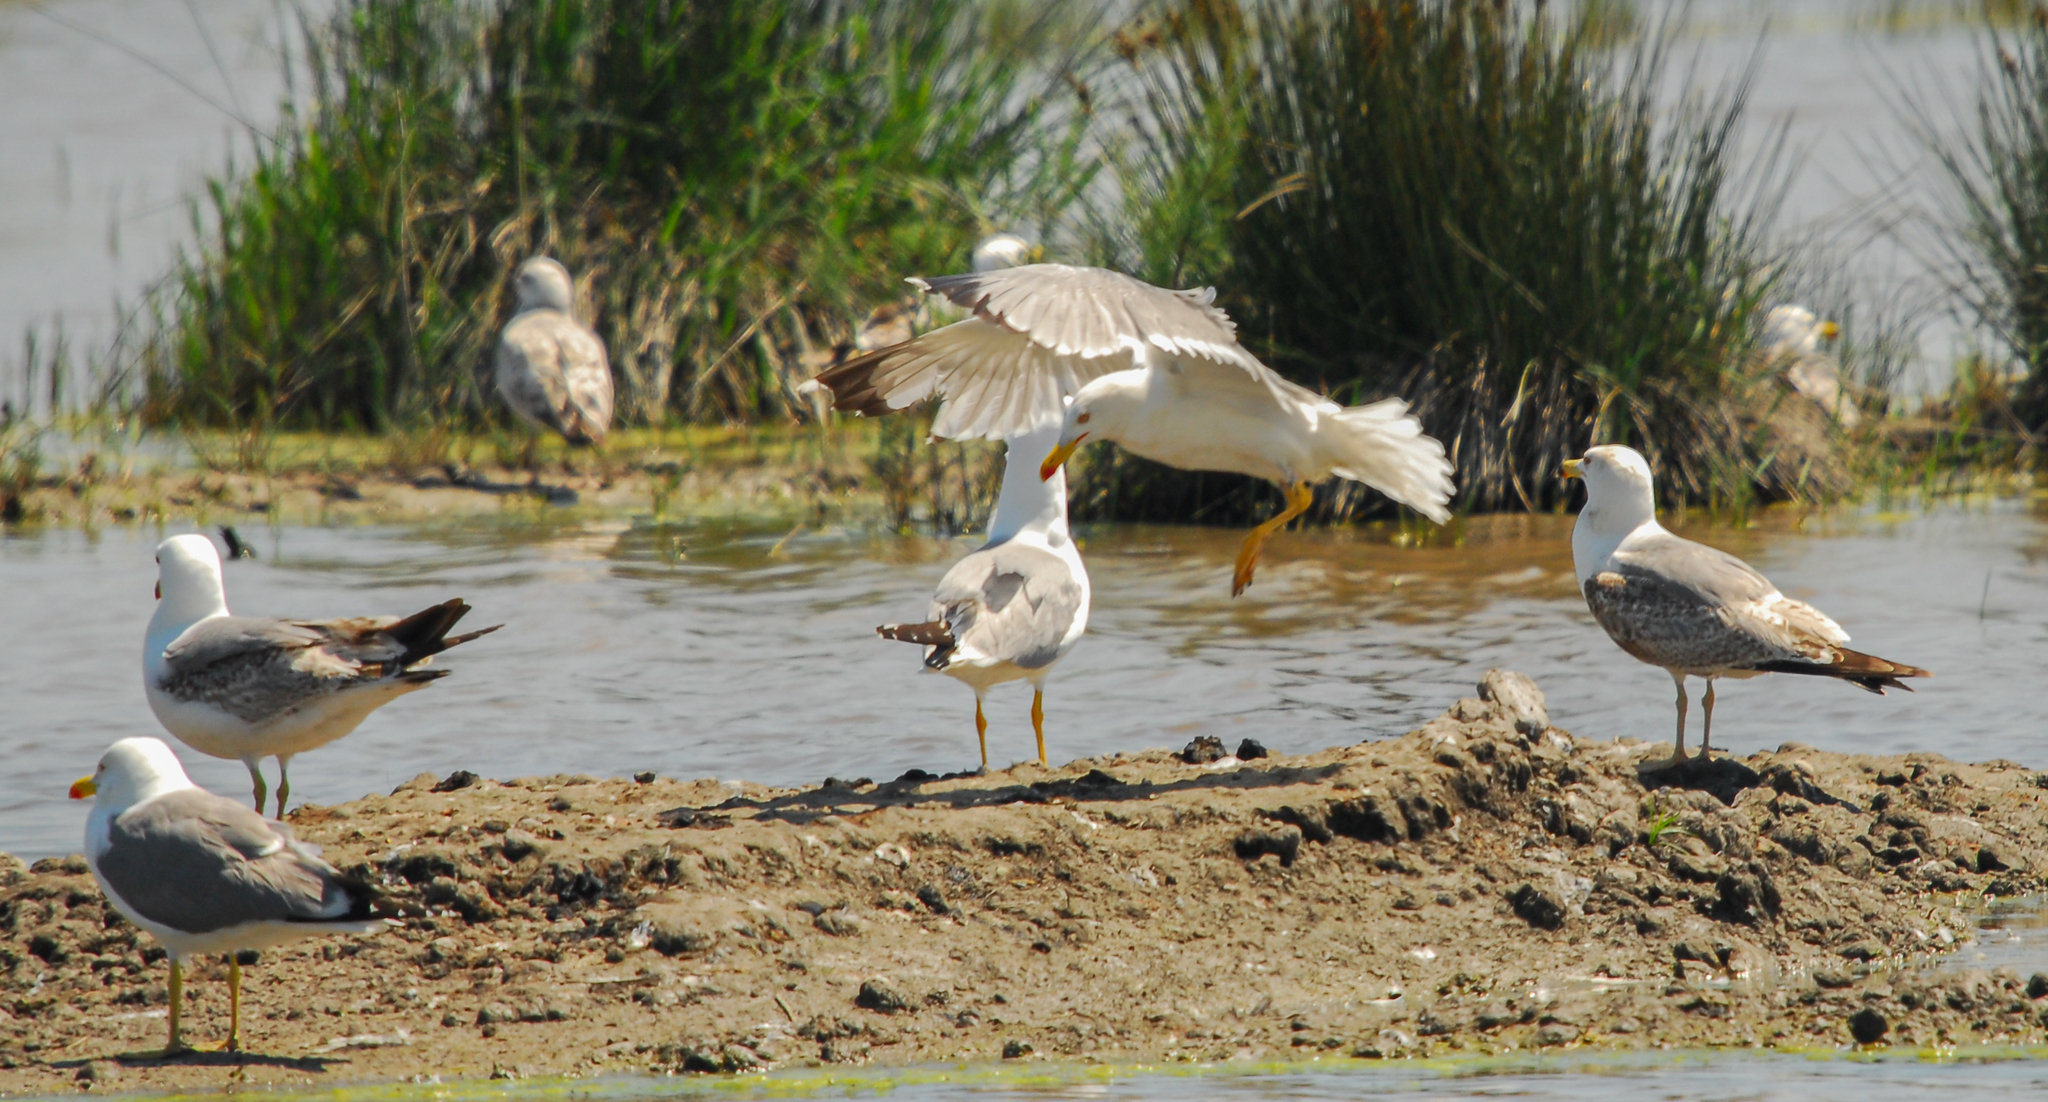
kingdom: Animalia
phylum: Chordata
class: Aves
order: Charadriiformes
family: Laridae
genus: Larus
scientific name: Larus michahellis
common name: Yellow-legged gull
